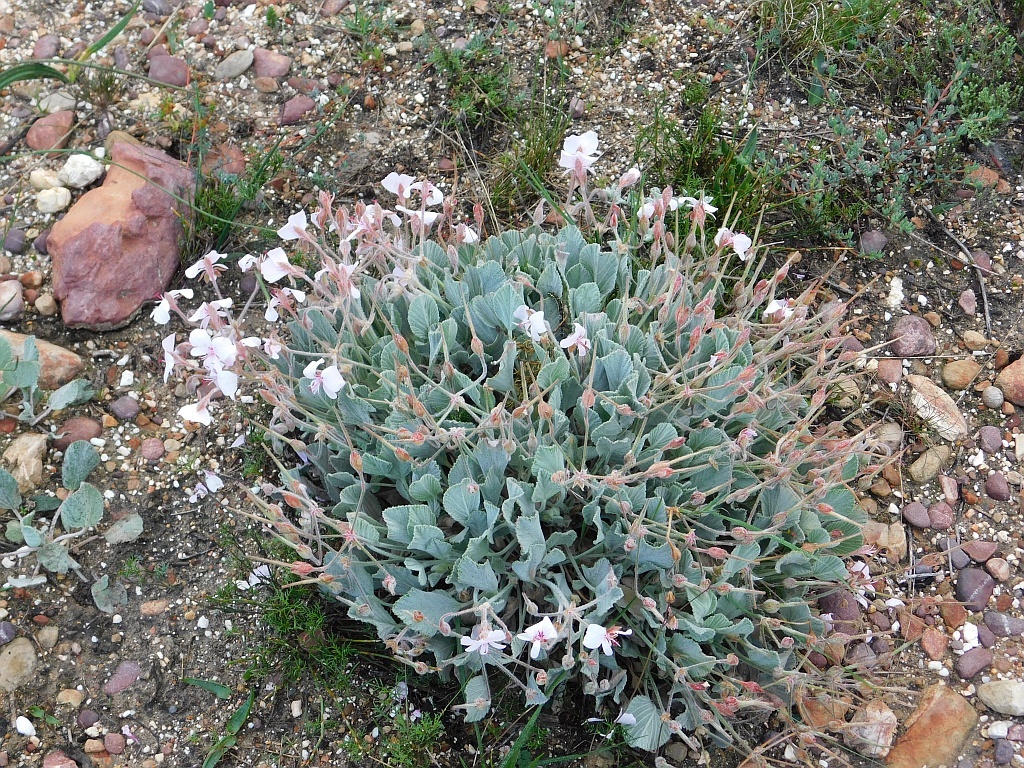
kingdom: Plantae
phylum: Tracheophyta
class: Magnoliopsida
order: Geraniales
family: Geraniaceae
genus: Pelargonium
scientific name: Pelargonium ovale
